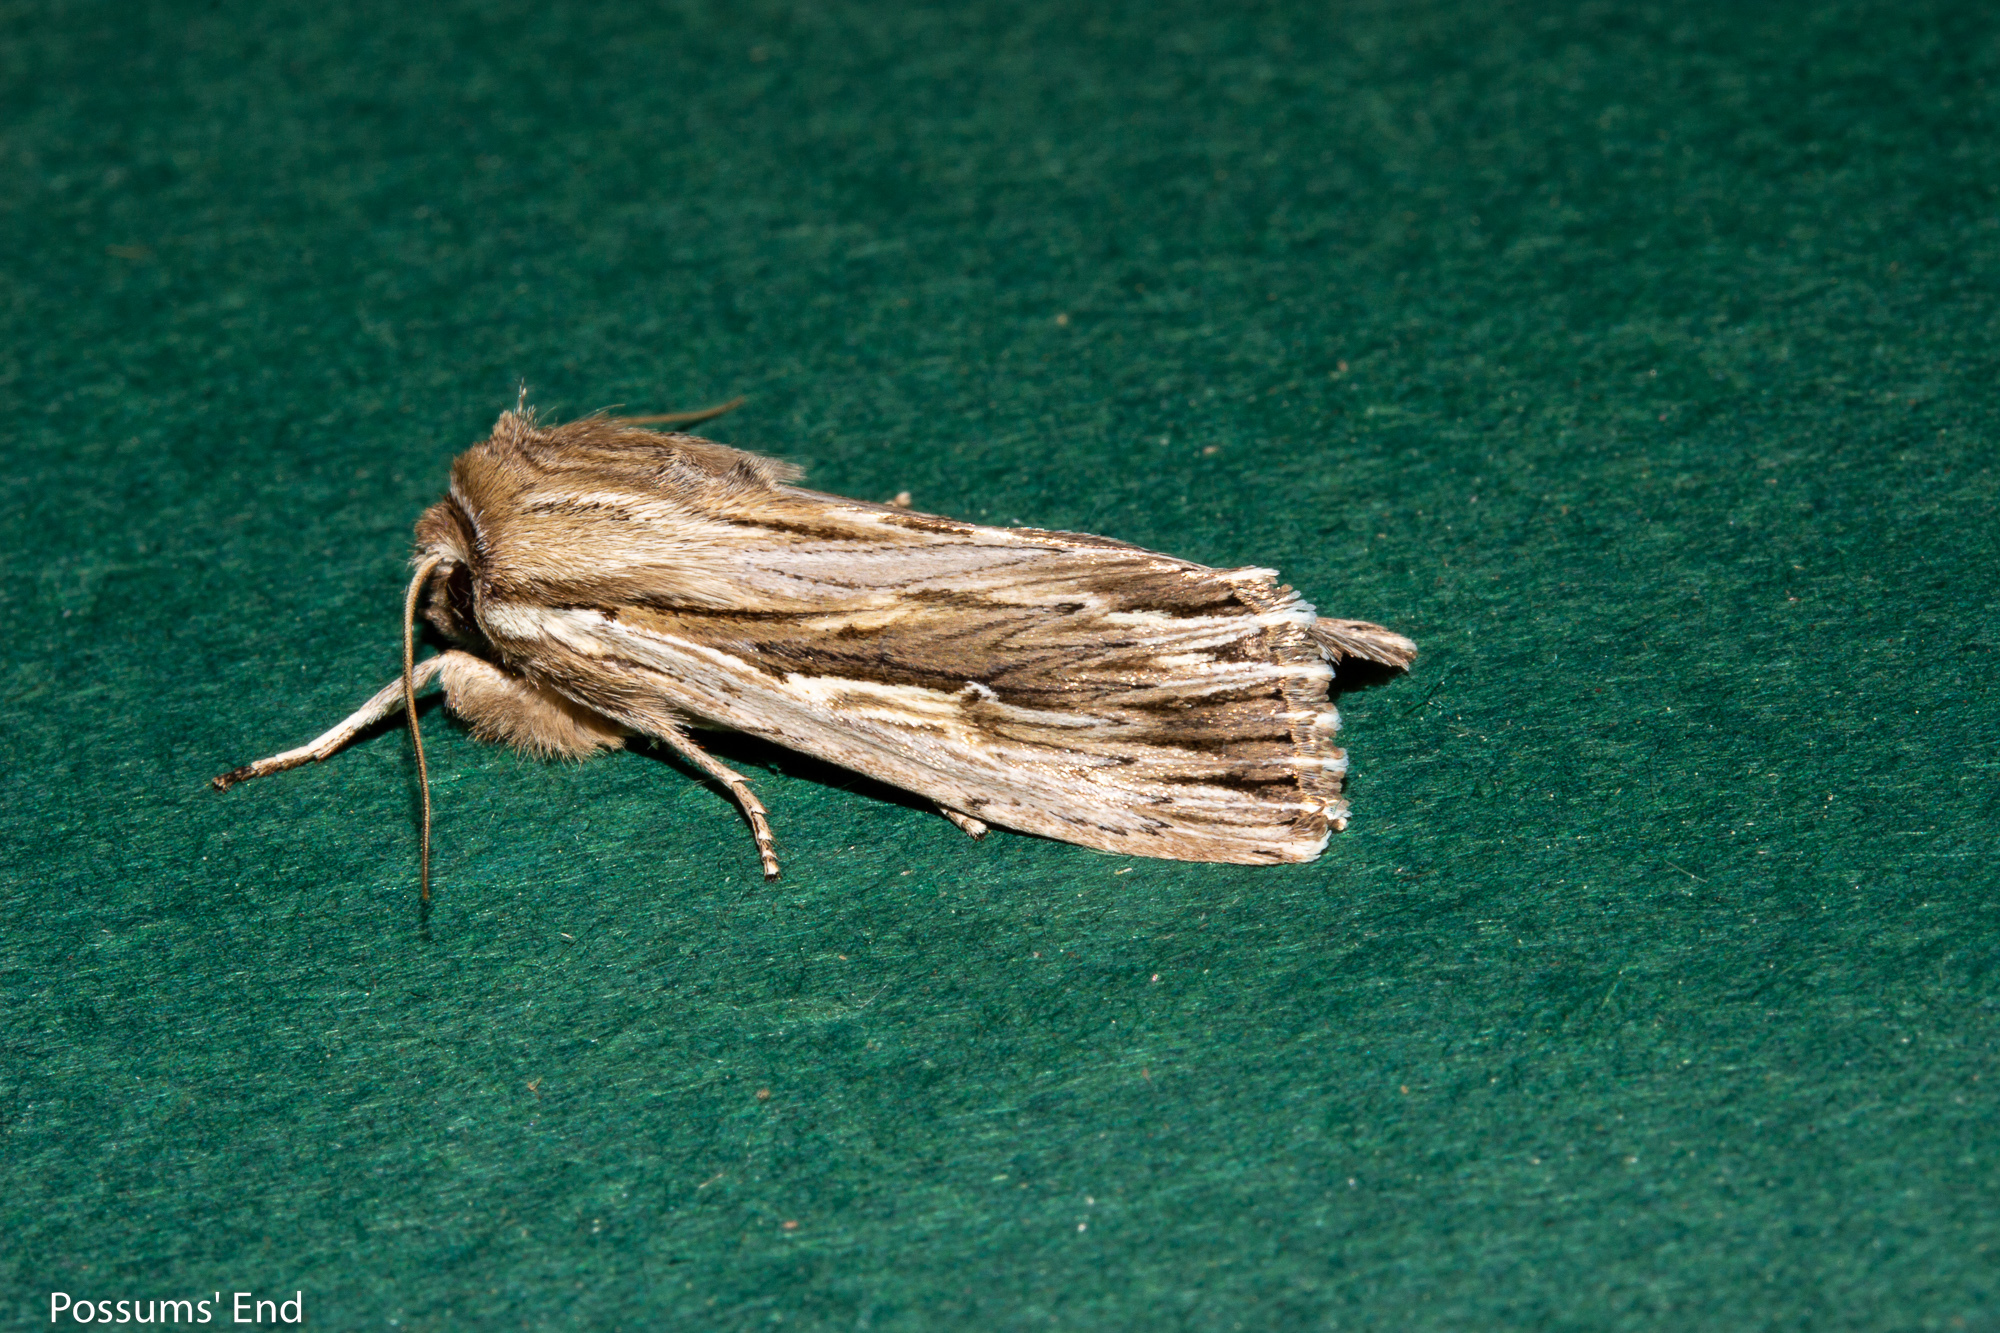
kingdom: Animalia
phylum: Arthropoda
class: Insecta
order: Lepidoptera
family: Noctuidae
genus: Persectania
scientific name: Persectania aversa
